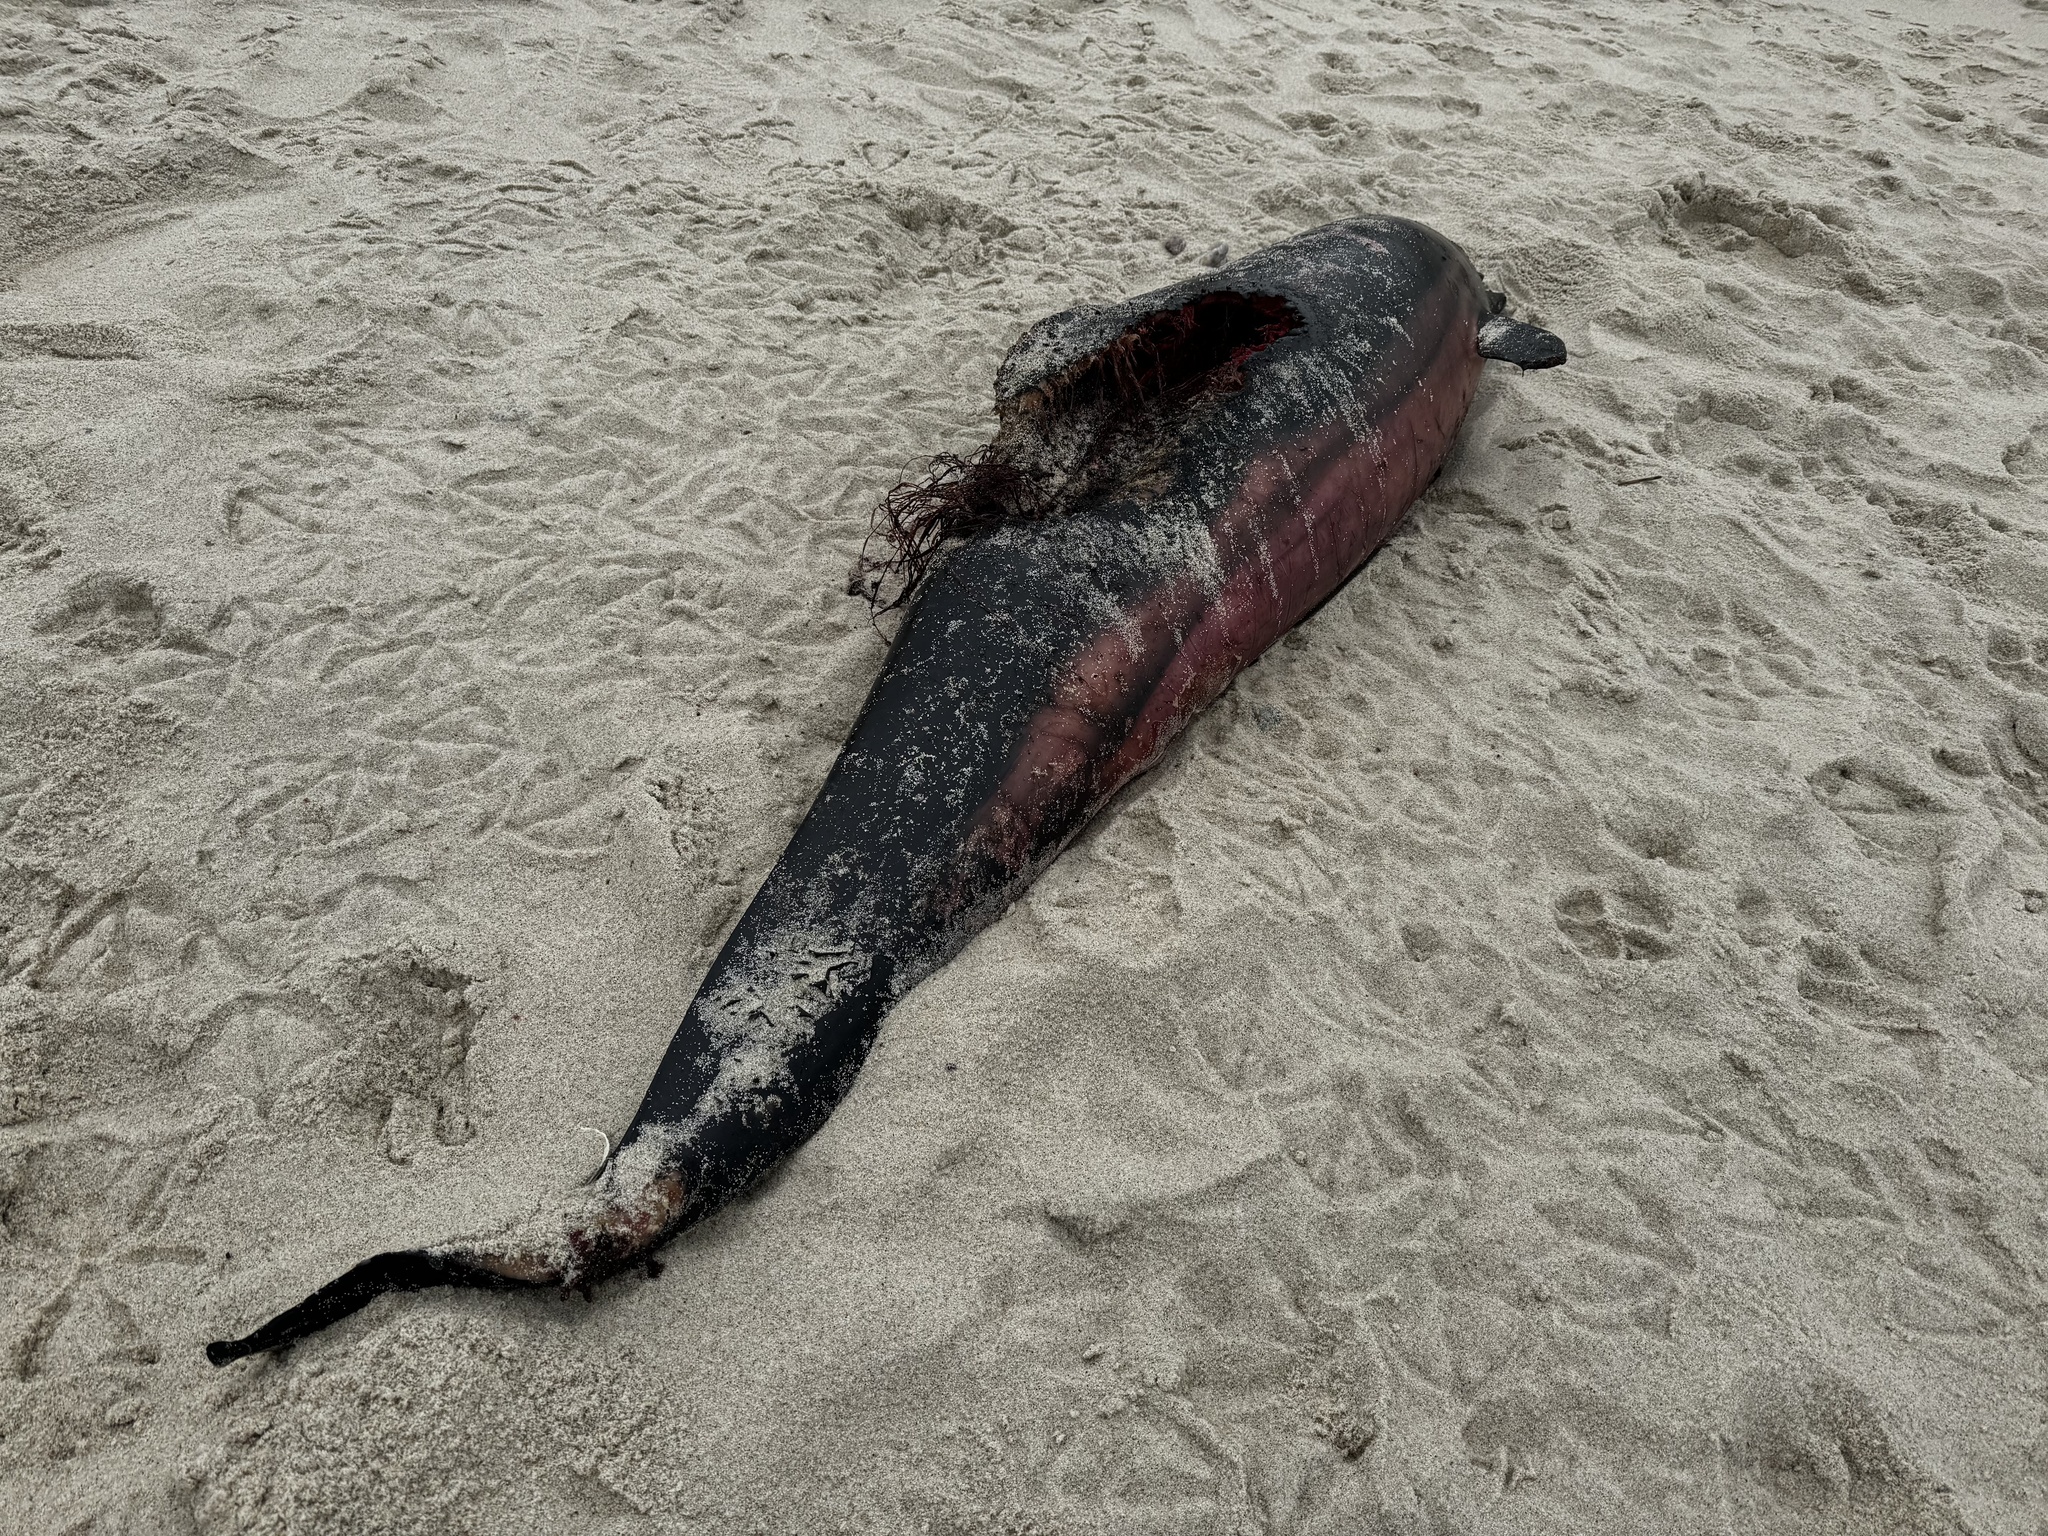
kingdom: Animalia
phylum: Chordata
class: Mammalia
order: Cetacea
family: Delphinidae
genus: Delphinus
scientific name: Delphinus delphis
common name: Common dolphin
